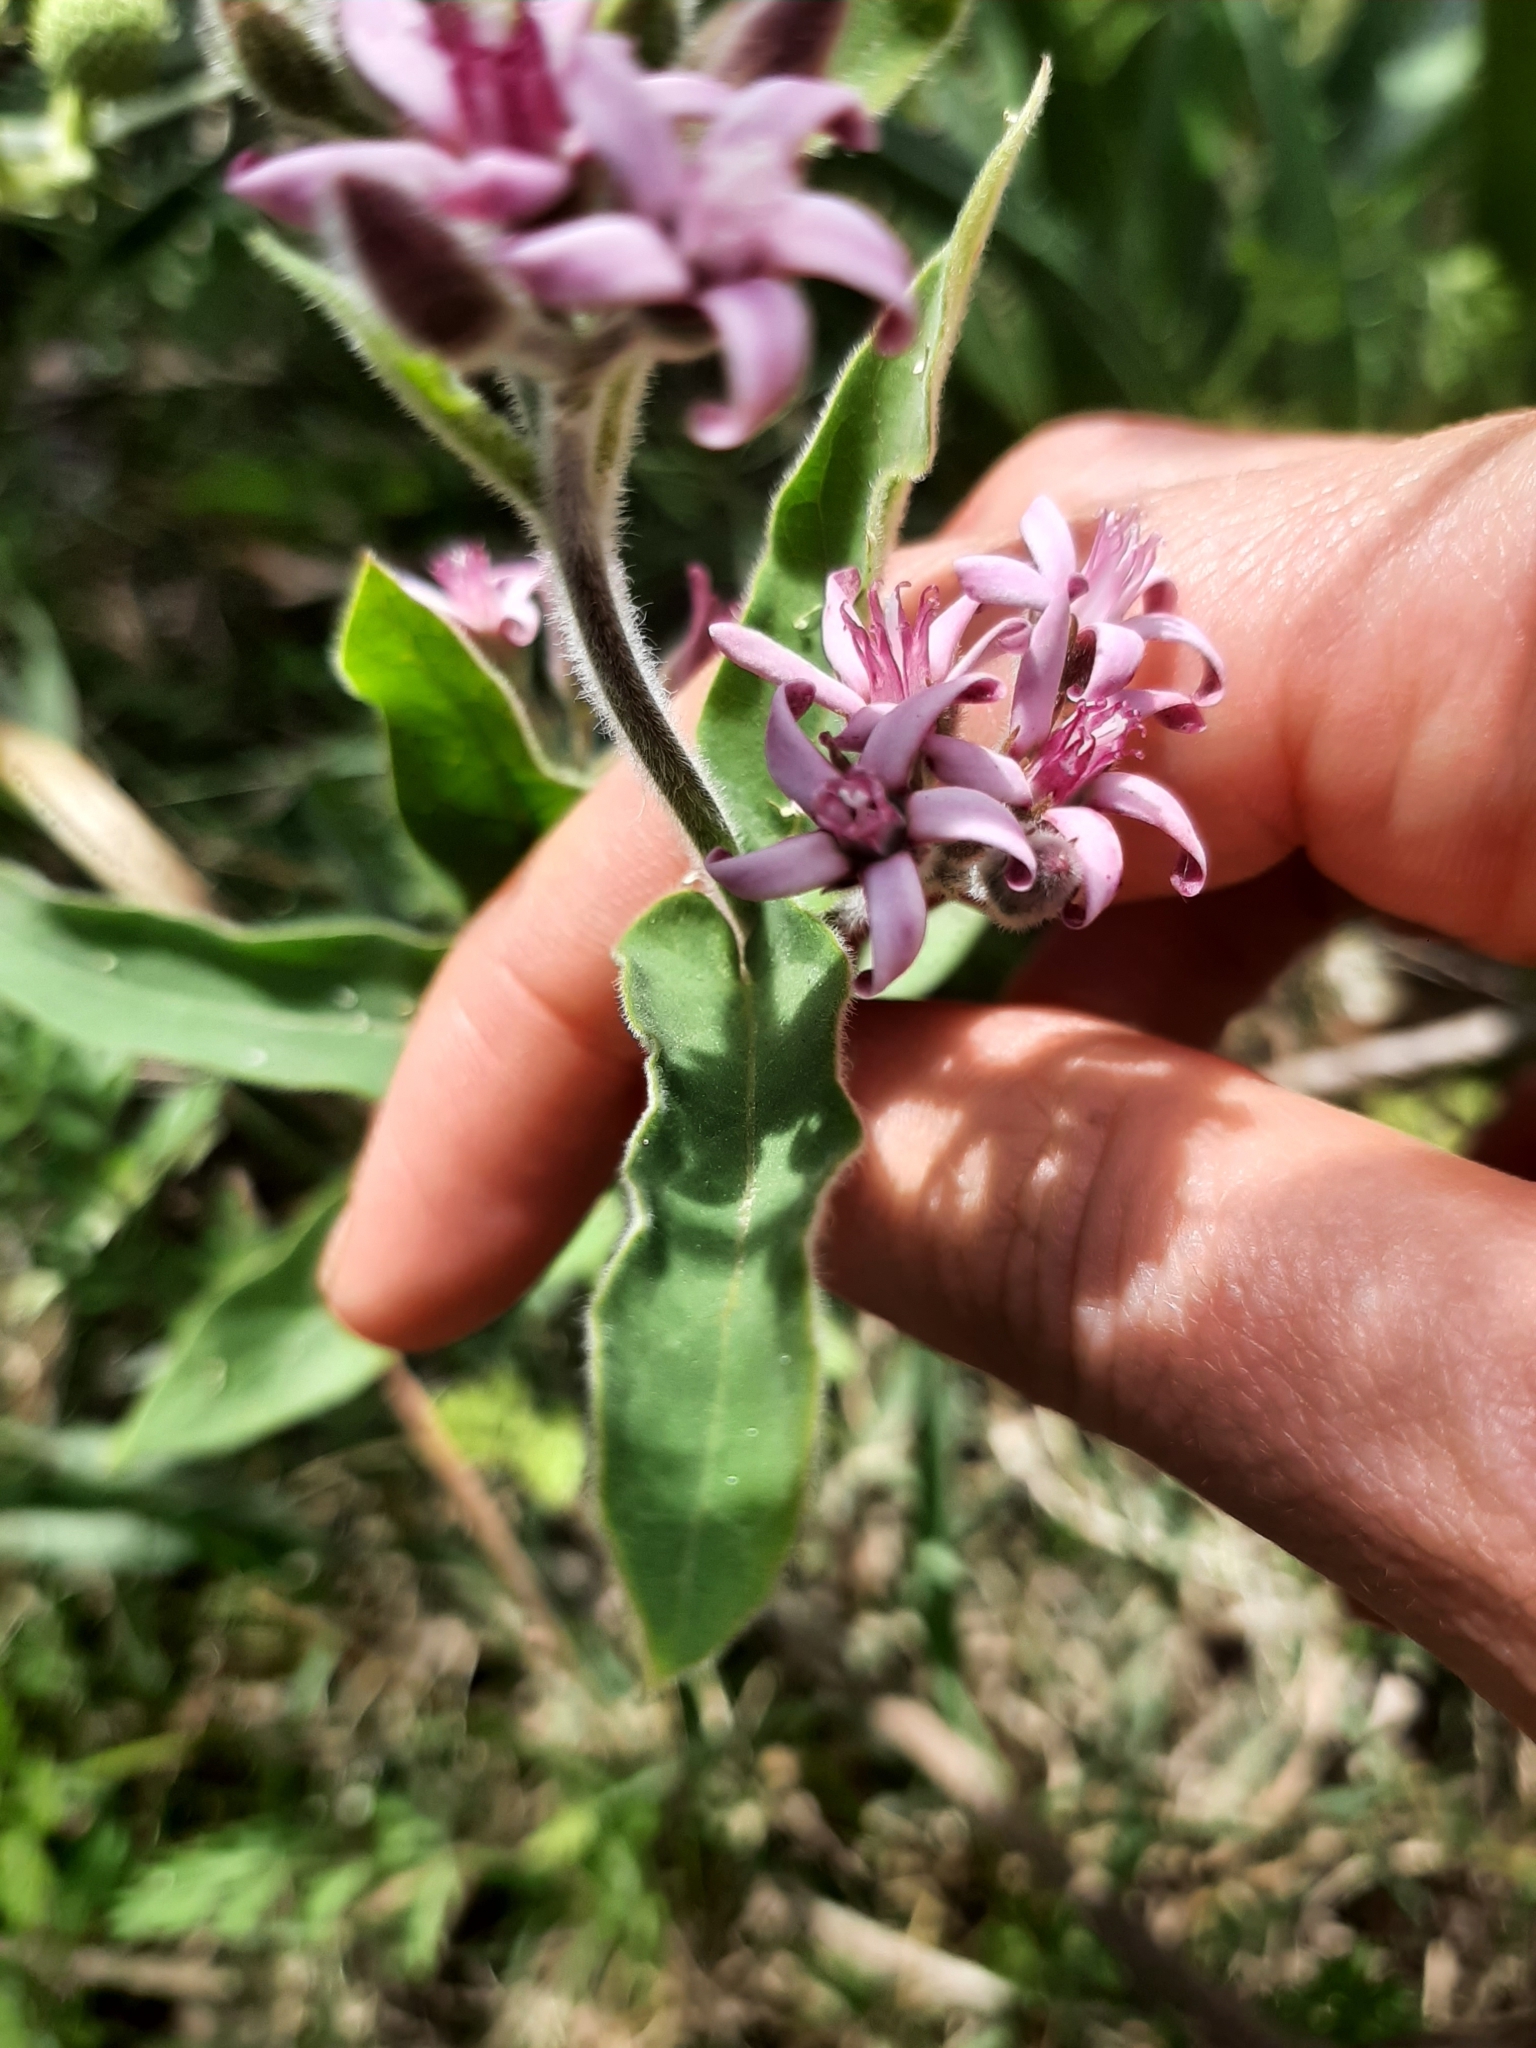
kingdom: Plantae
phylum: Tracheophyta
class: Magnoliopsida
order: Gentianales
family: Apocynaceae
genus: Oxypetalum
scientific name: Oxypetalum solanoides
